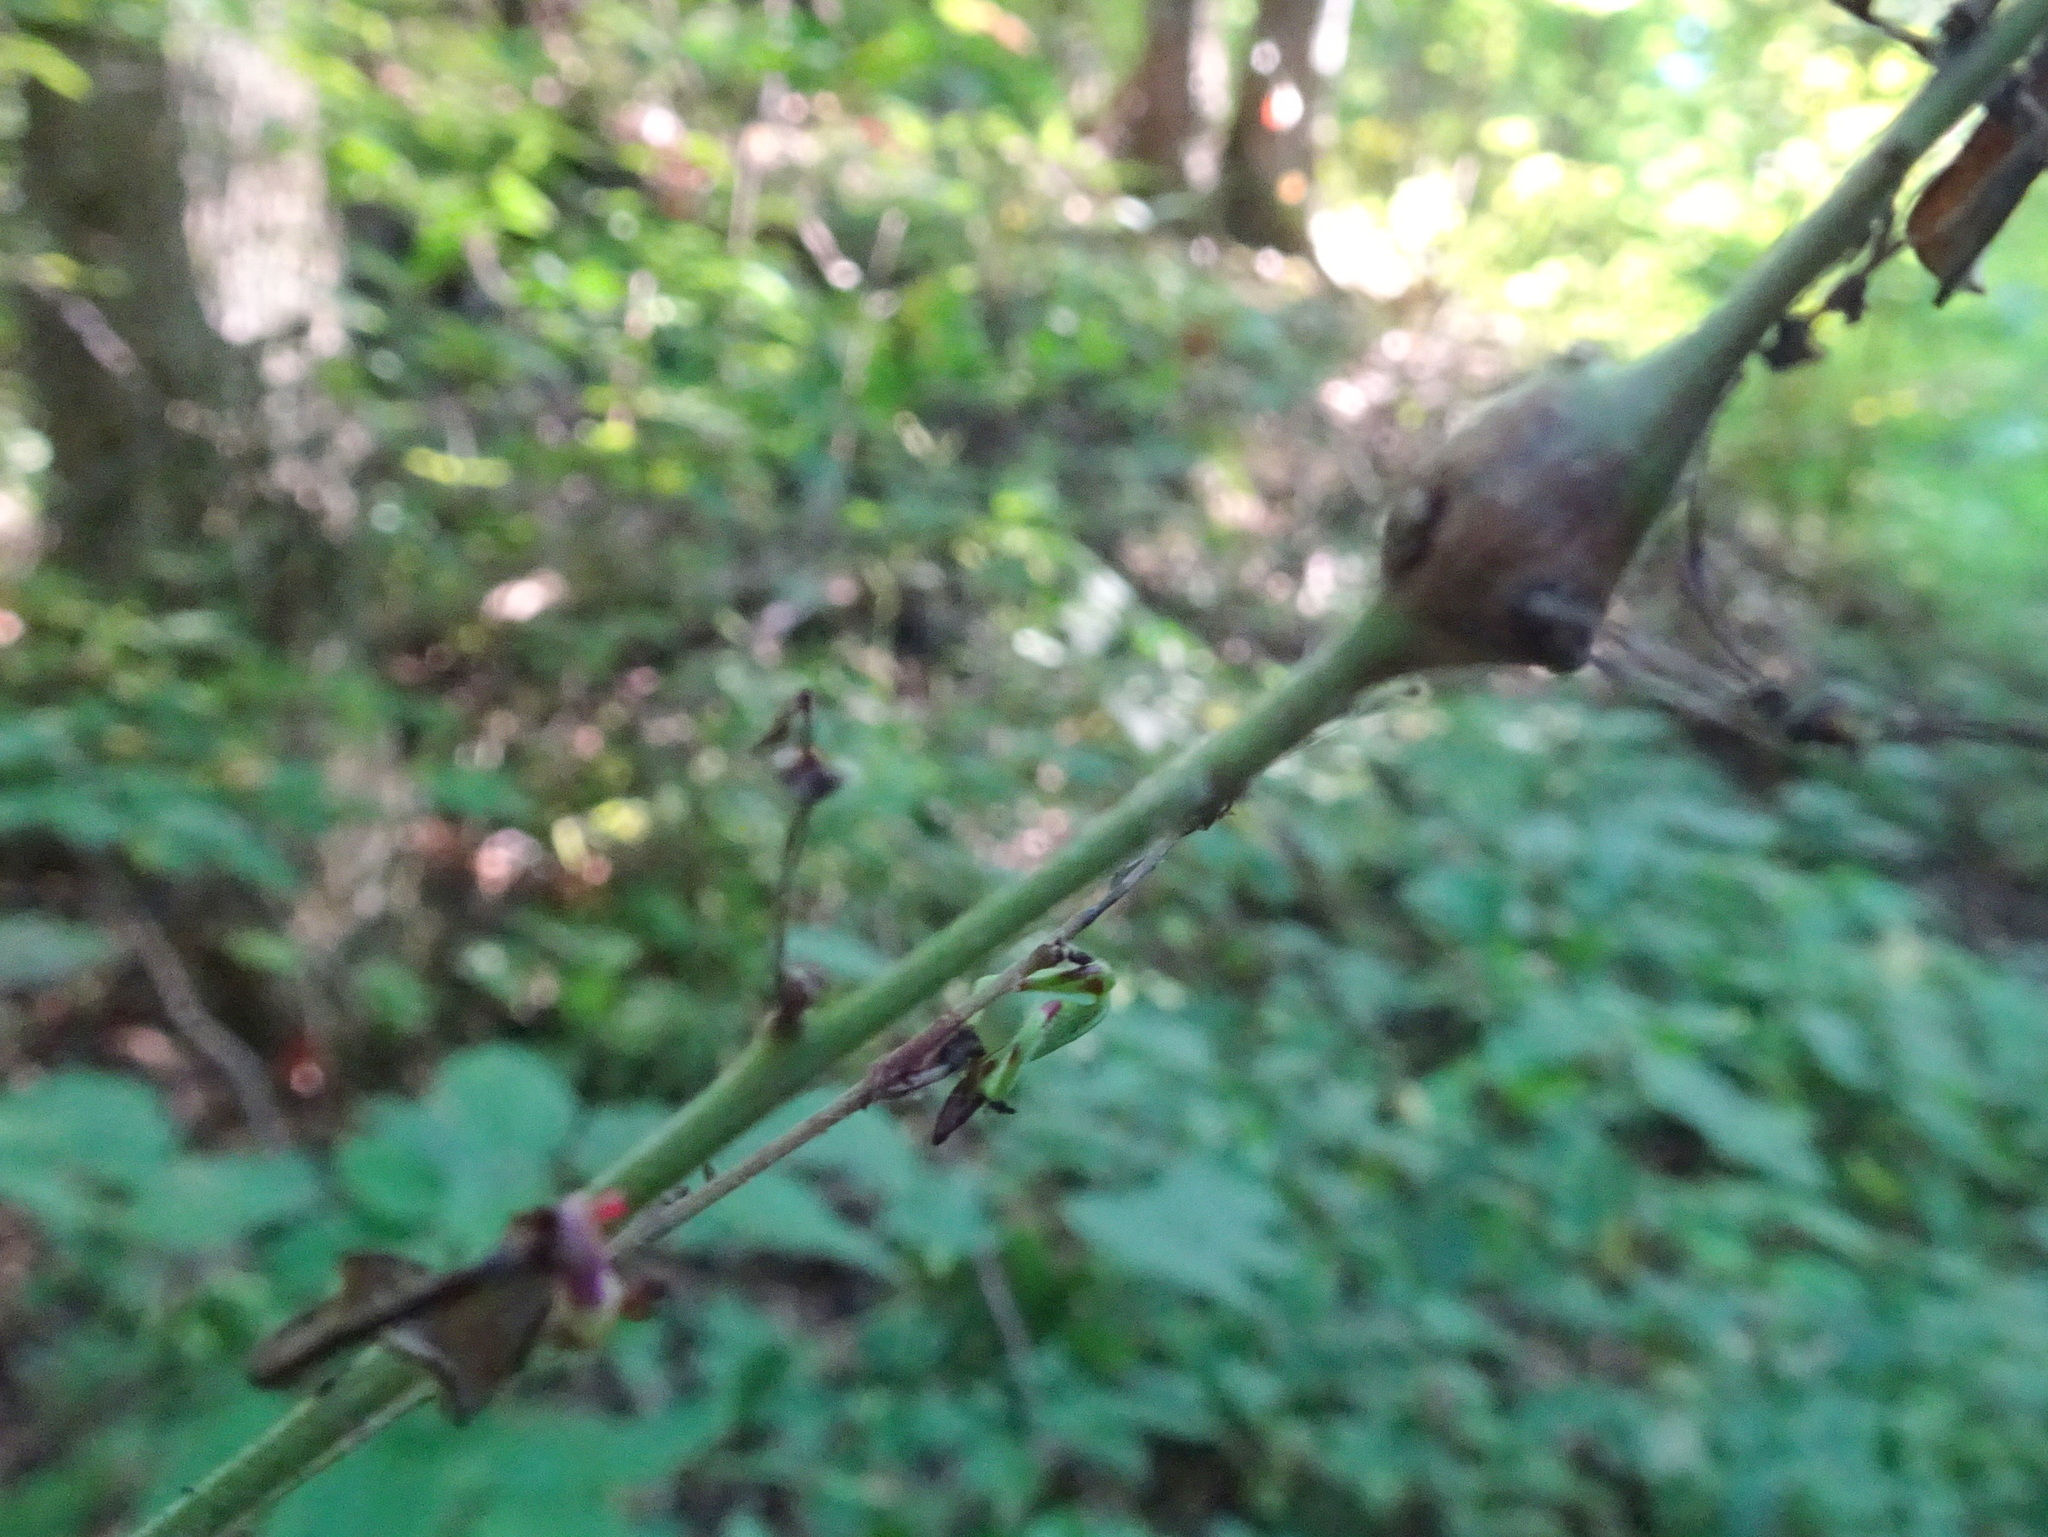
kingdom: Animalia
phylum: Arthropoda
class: Insecta
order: Diptera
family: Cecidomyiidae
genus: Neolasioptera
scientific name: Neolasioptera desmodii
